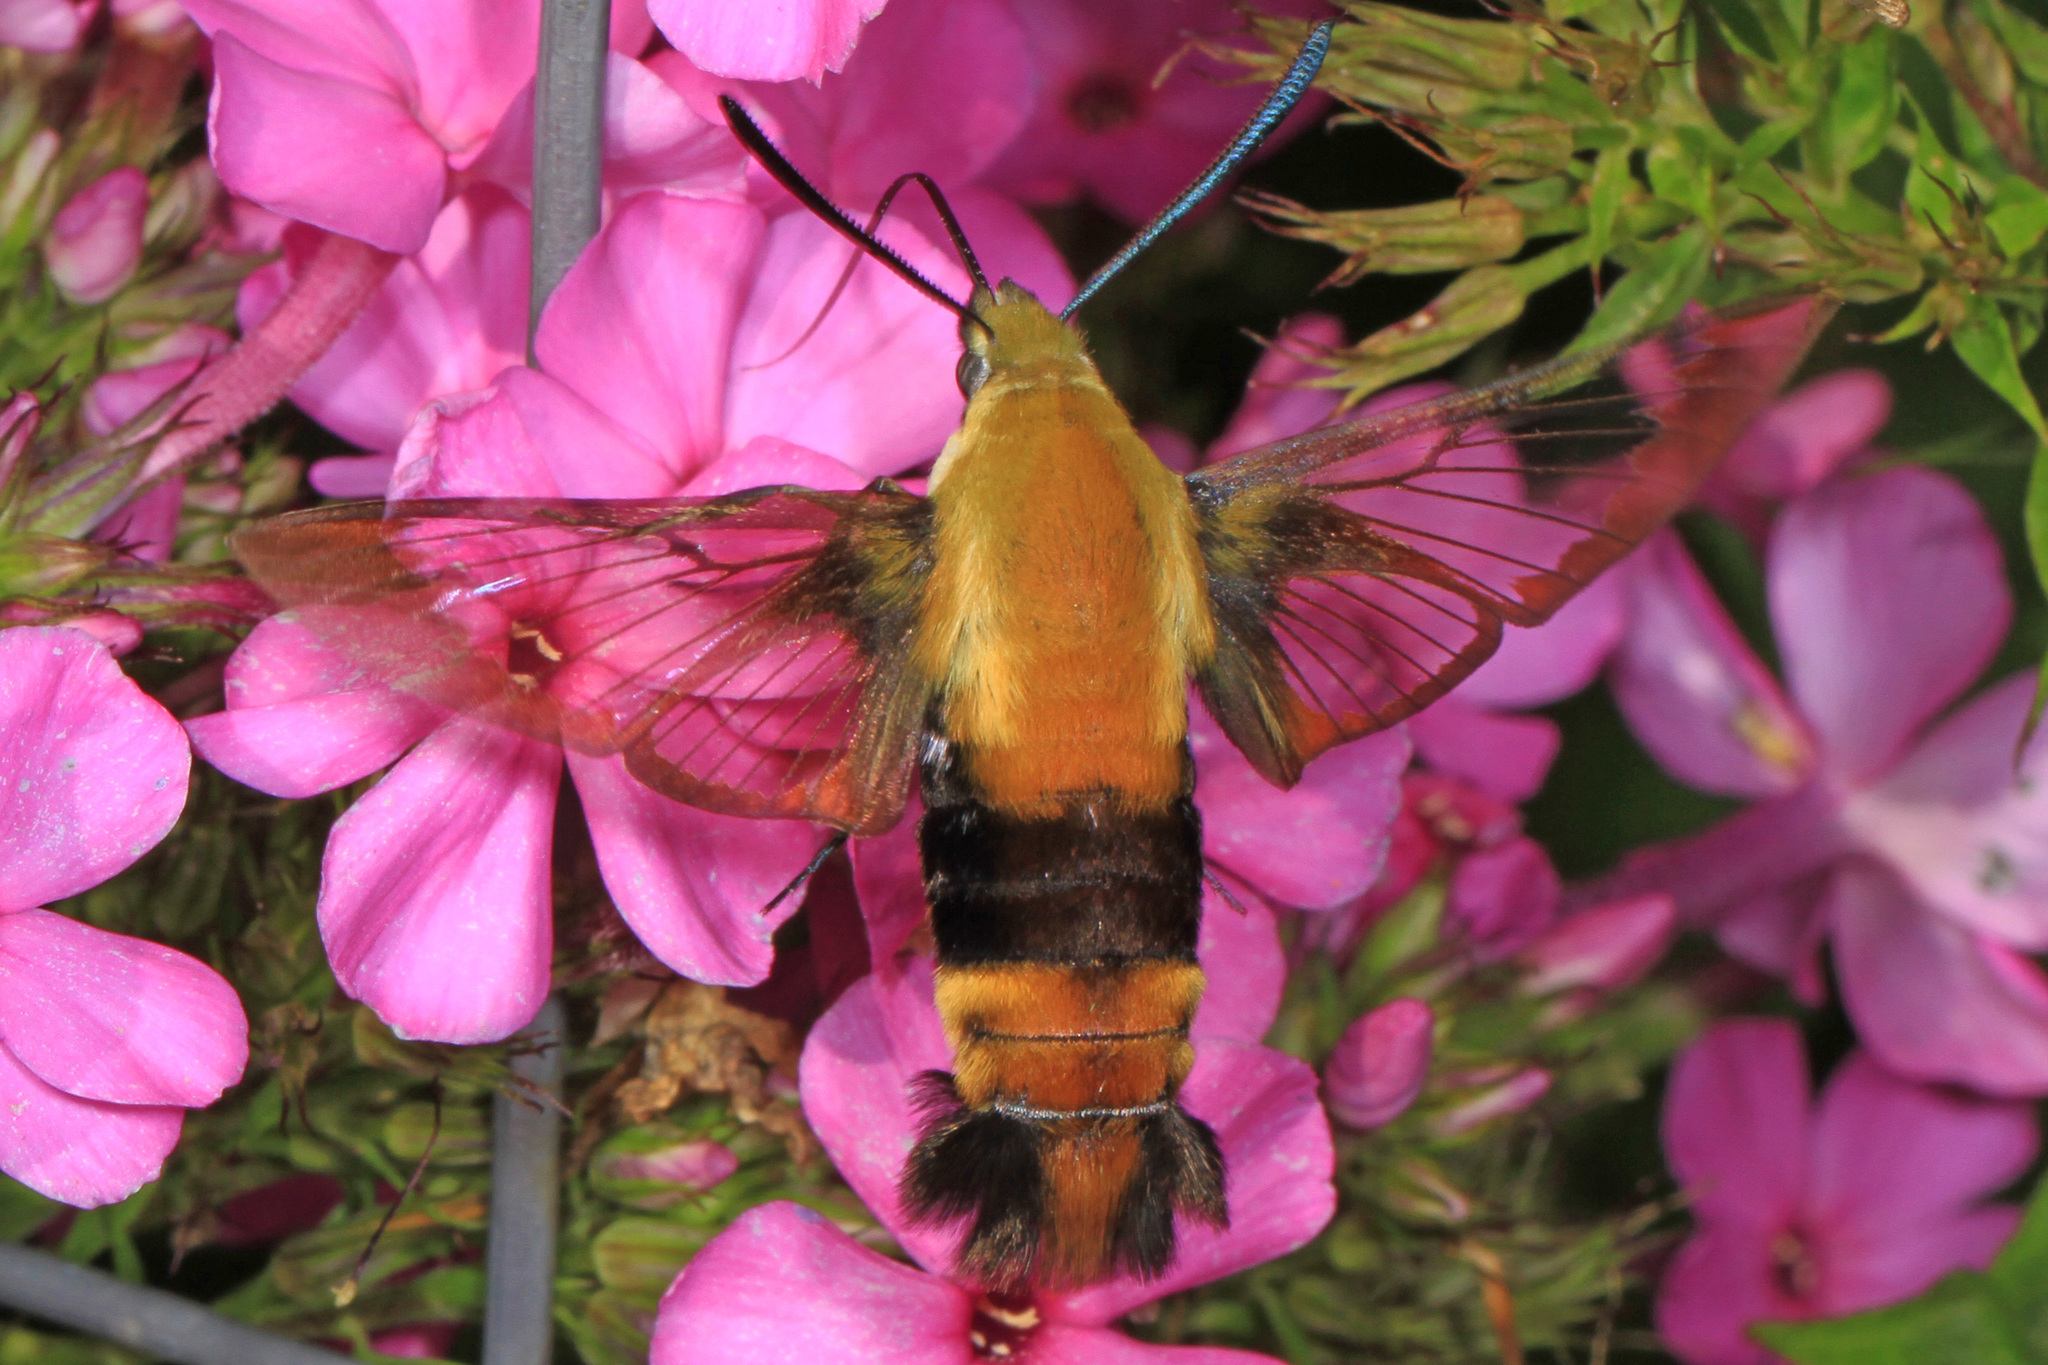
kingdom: Animalia
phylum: Arthropoda
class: Insecta
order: Lepidoptera
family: Sphingidae
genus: Hemaris
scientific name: Hemaris diffinis
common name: Bumblebee moth
